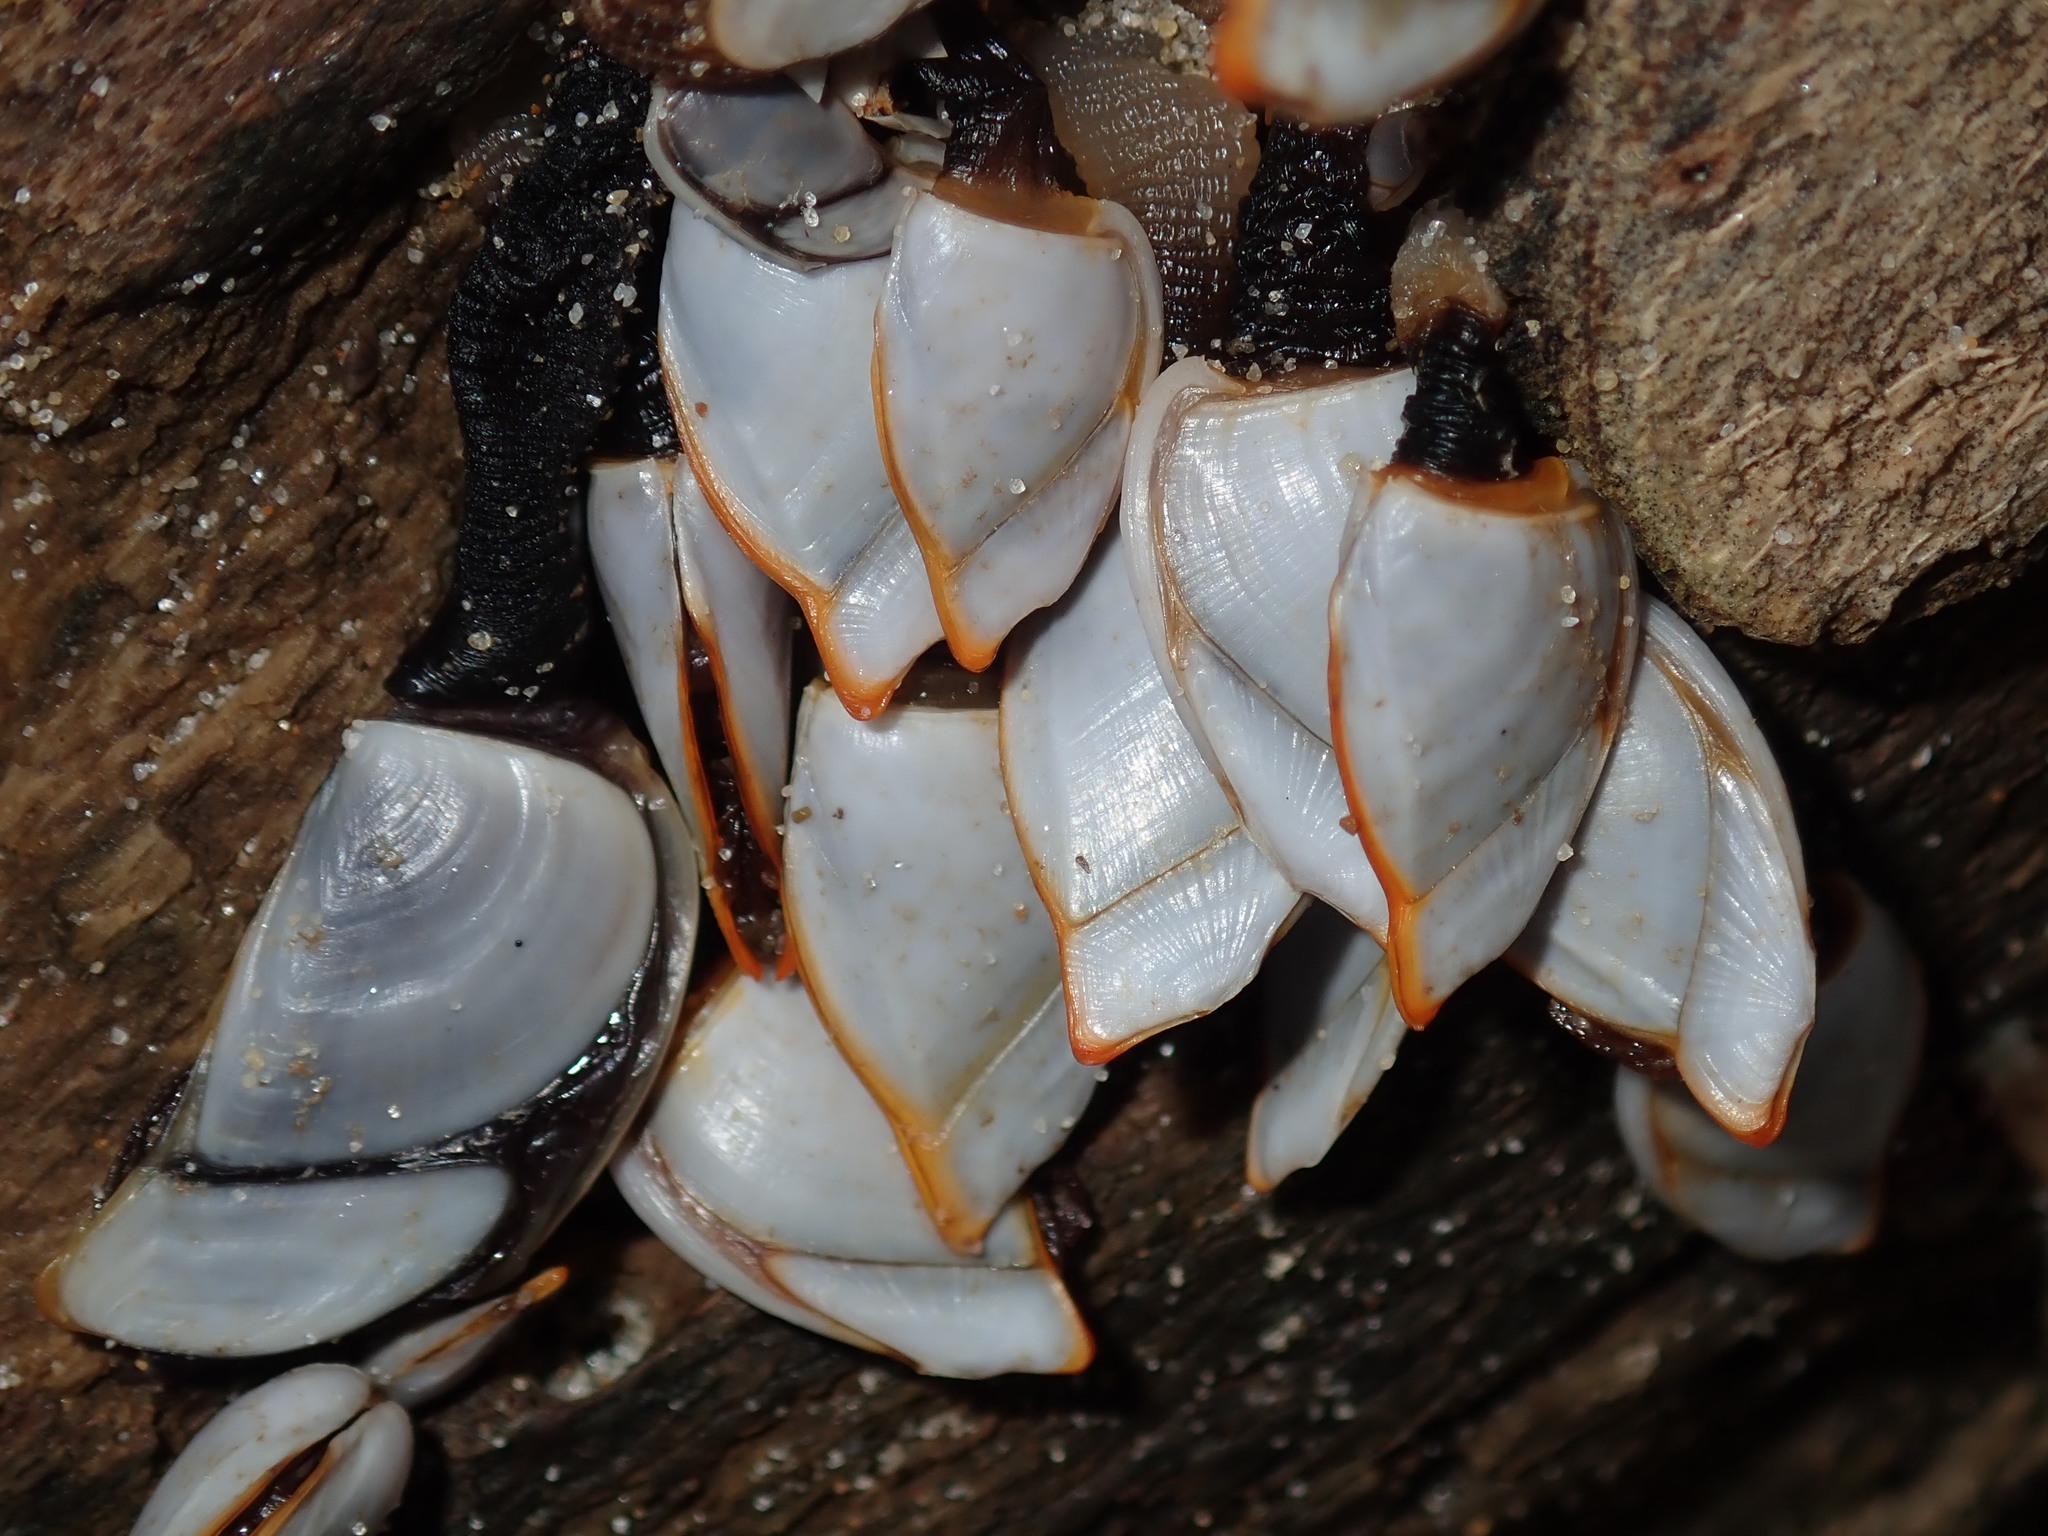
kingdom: Animalia
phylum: Arthropoda
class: Maxillopoda
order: Pedunculata
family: Lepadidae
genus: Lepas
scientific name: Lepas anserifera
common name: Goose barnacle
